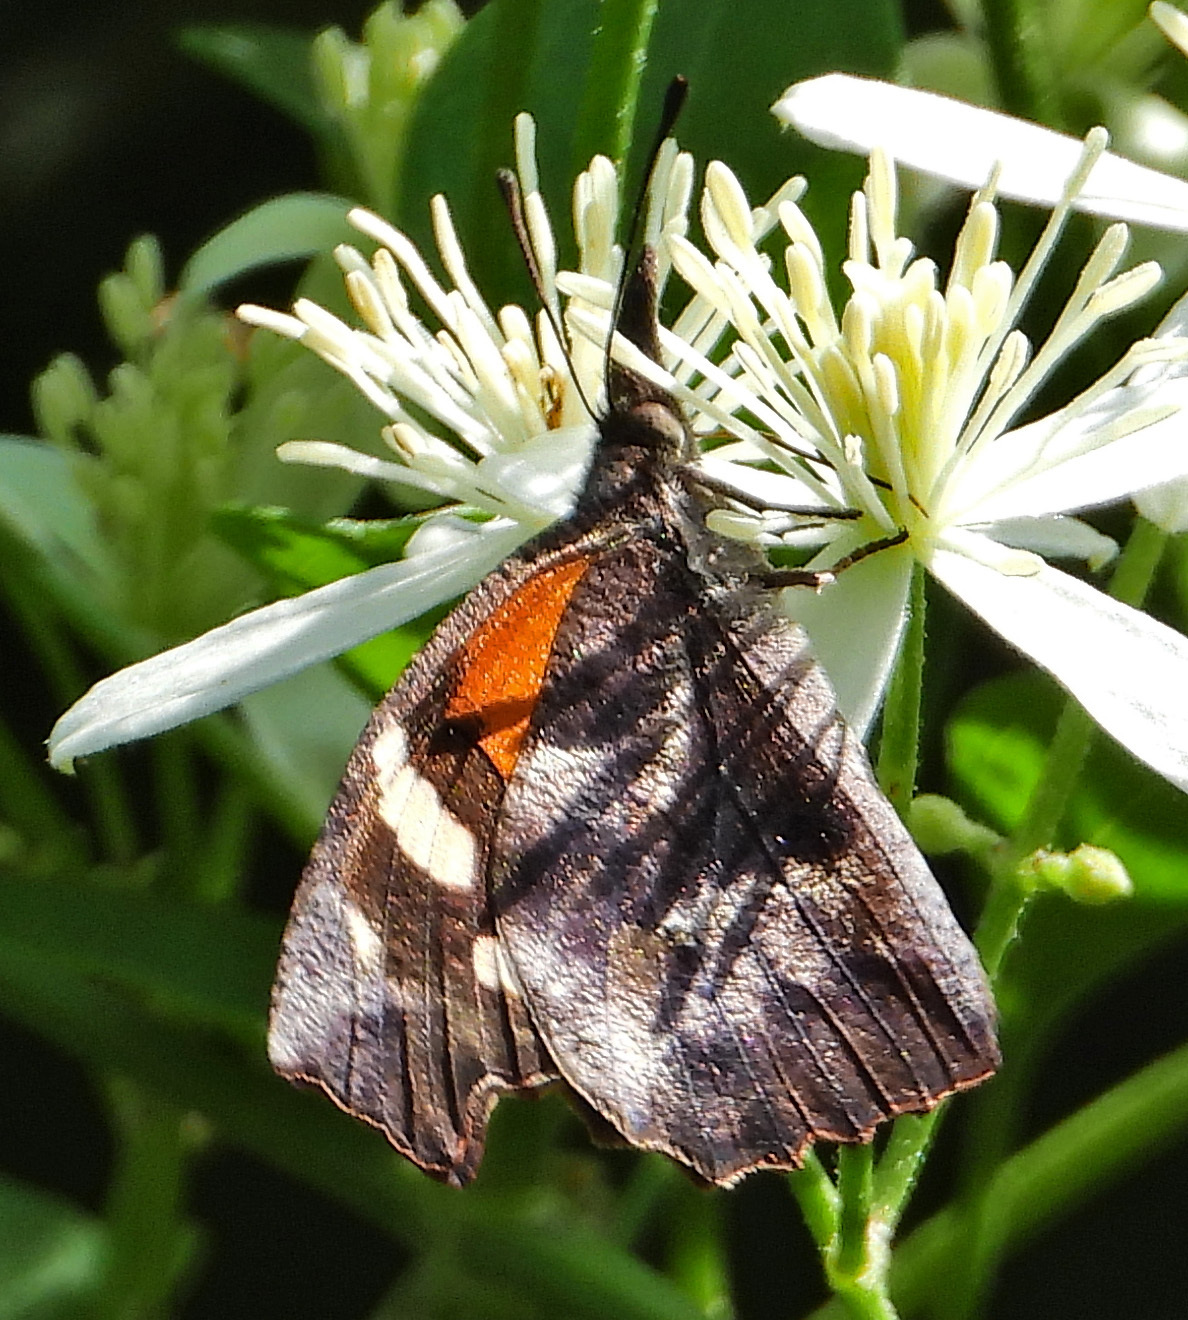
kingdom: Animalia
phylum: Arthropoda
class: Insecta
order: Lepidoptera
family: Nymphalidae
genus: Libytheana
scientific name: Libytheana carinenta
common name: American snout
